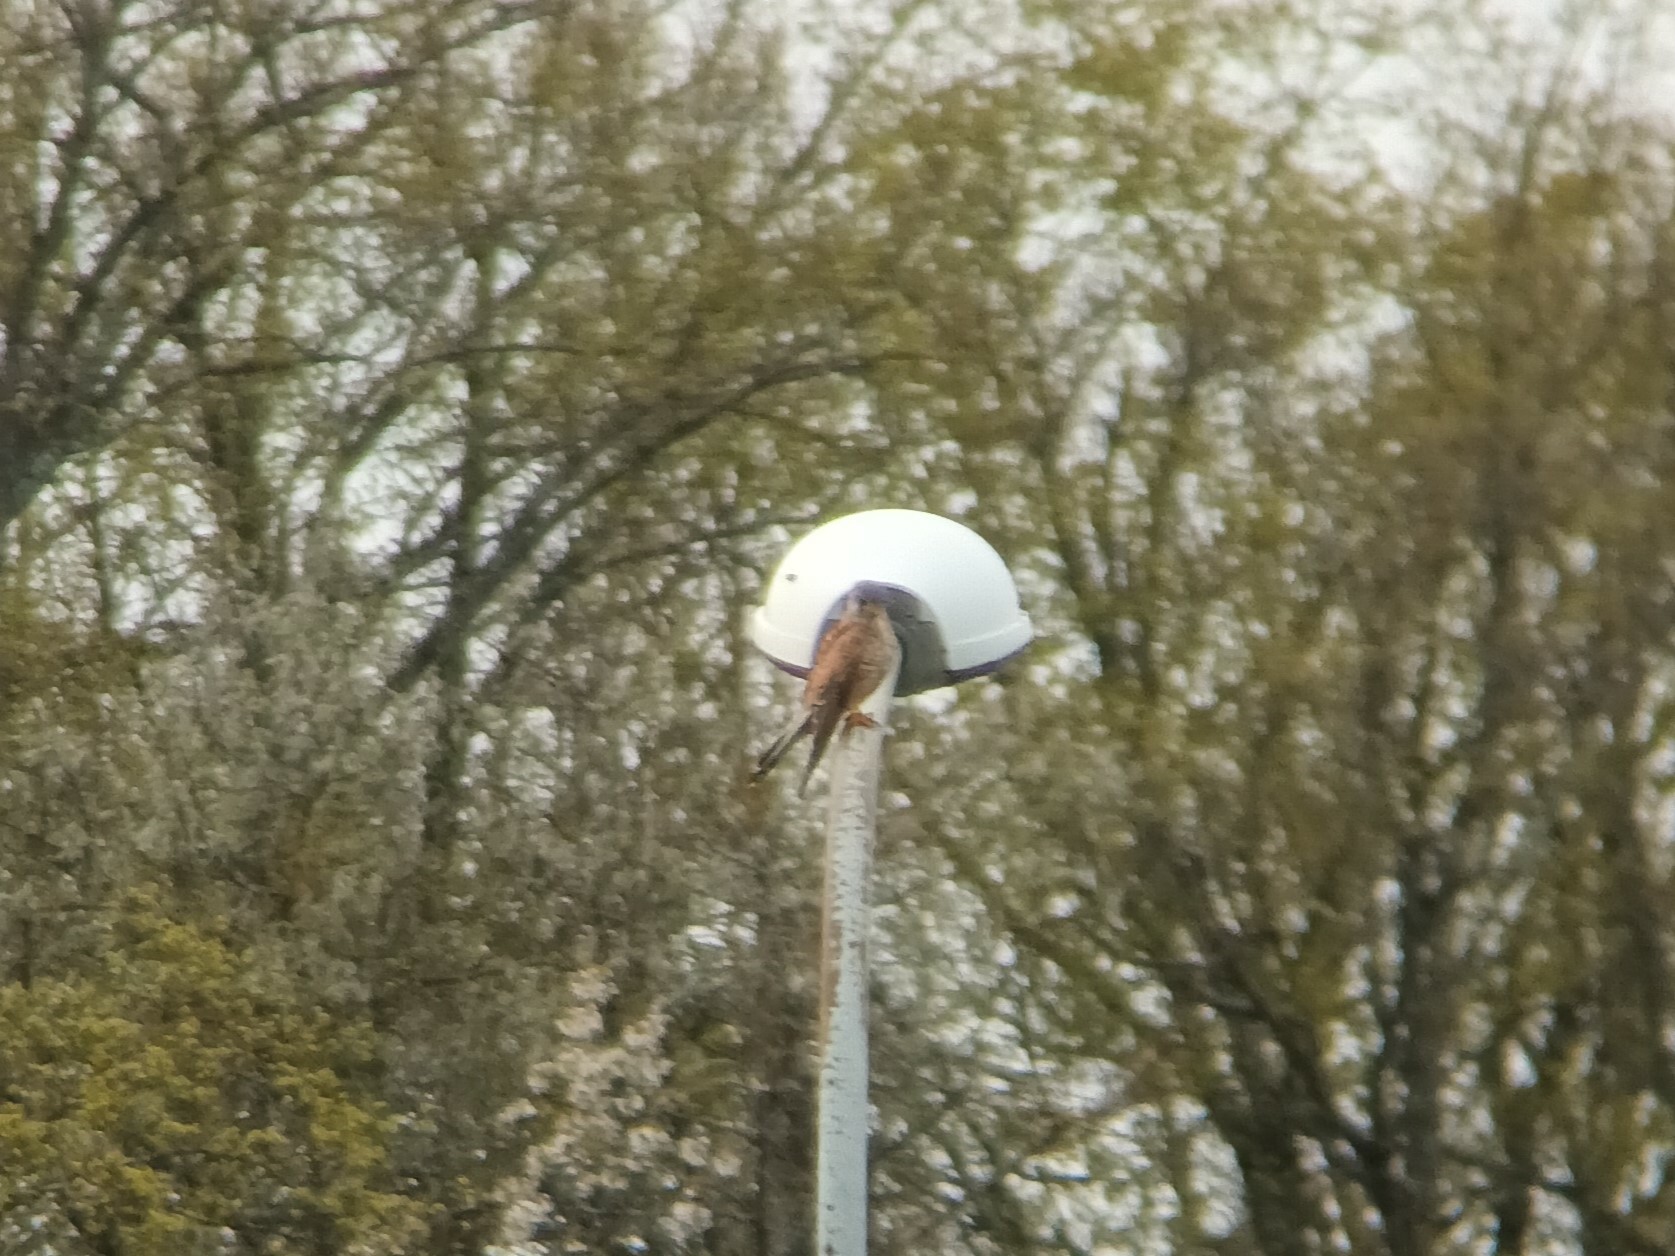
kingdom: Animalia
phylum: Chordata
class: Aves
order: Falconiformes
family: Falconidae
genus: Falco
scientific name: Falco tinnunculus
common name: Common kestrel
